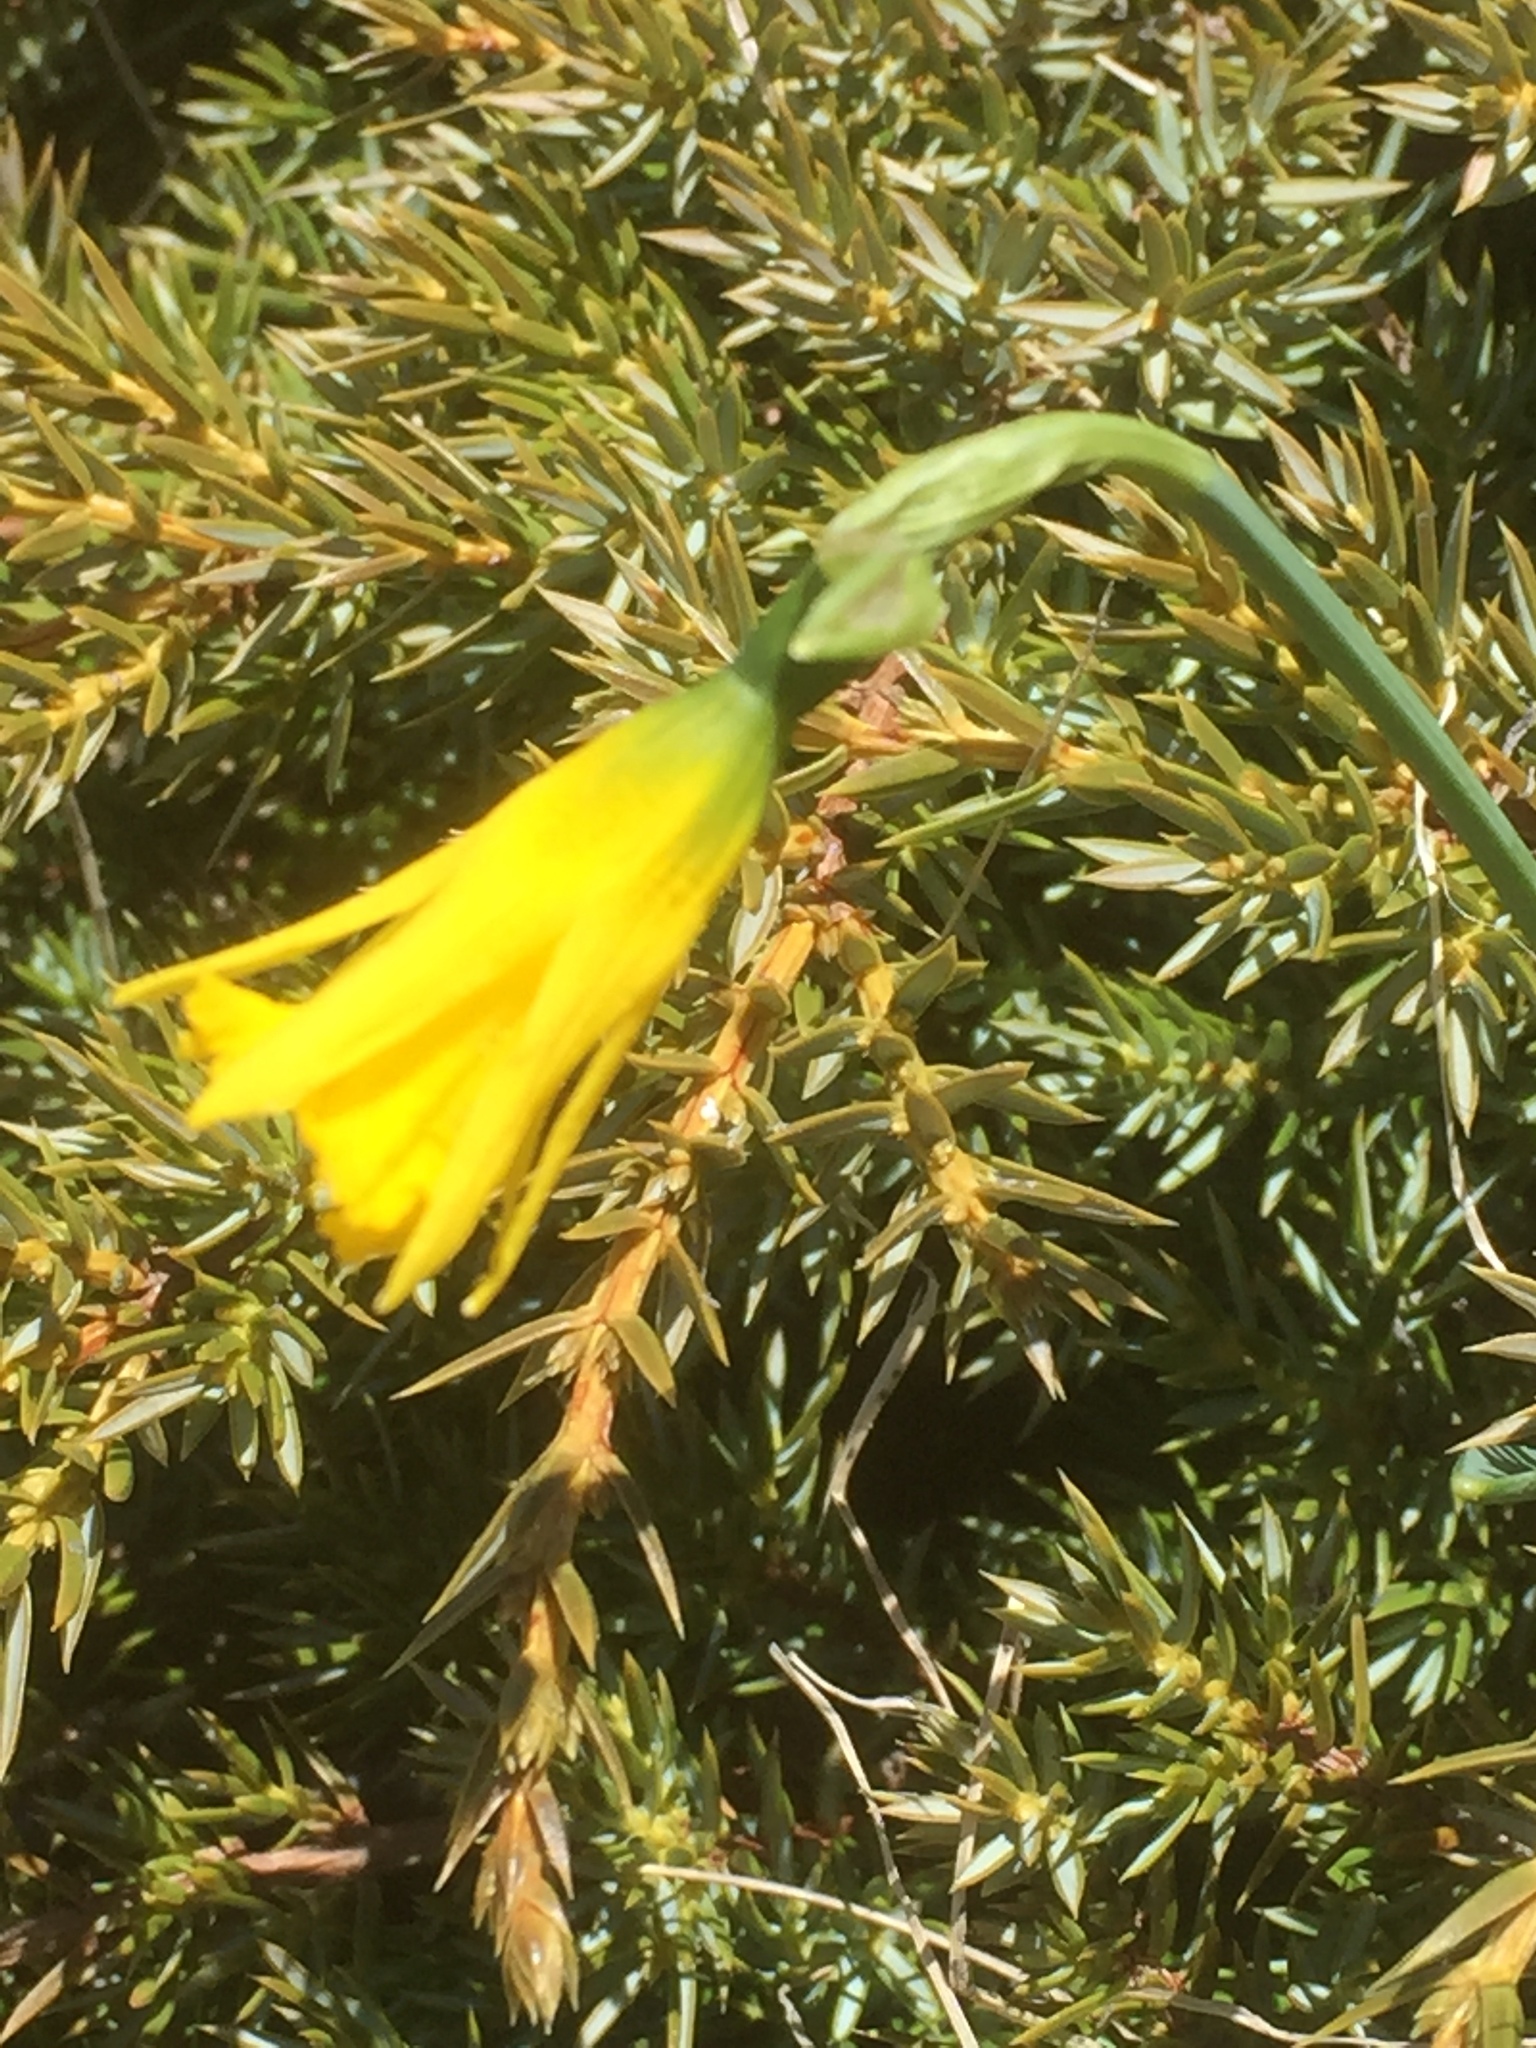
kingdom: Plantae
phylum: Tracheophyta
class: Liliopsida
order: Asparagales
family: Amaryllidaceae
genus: Narcissus
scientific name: Narcissus cuneiflorus
